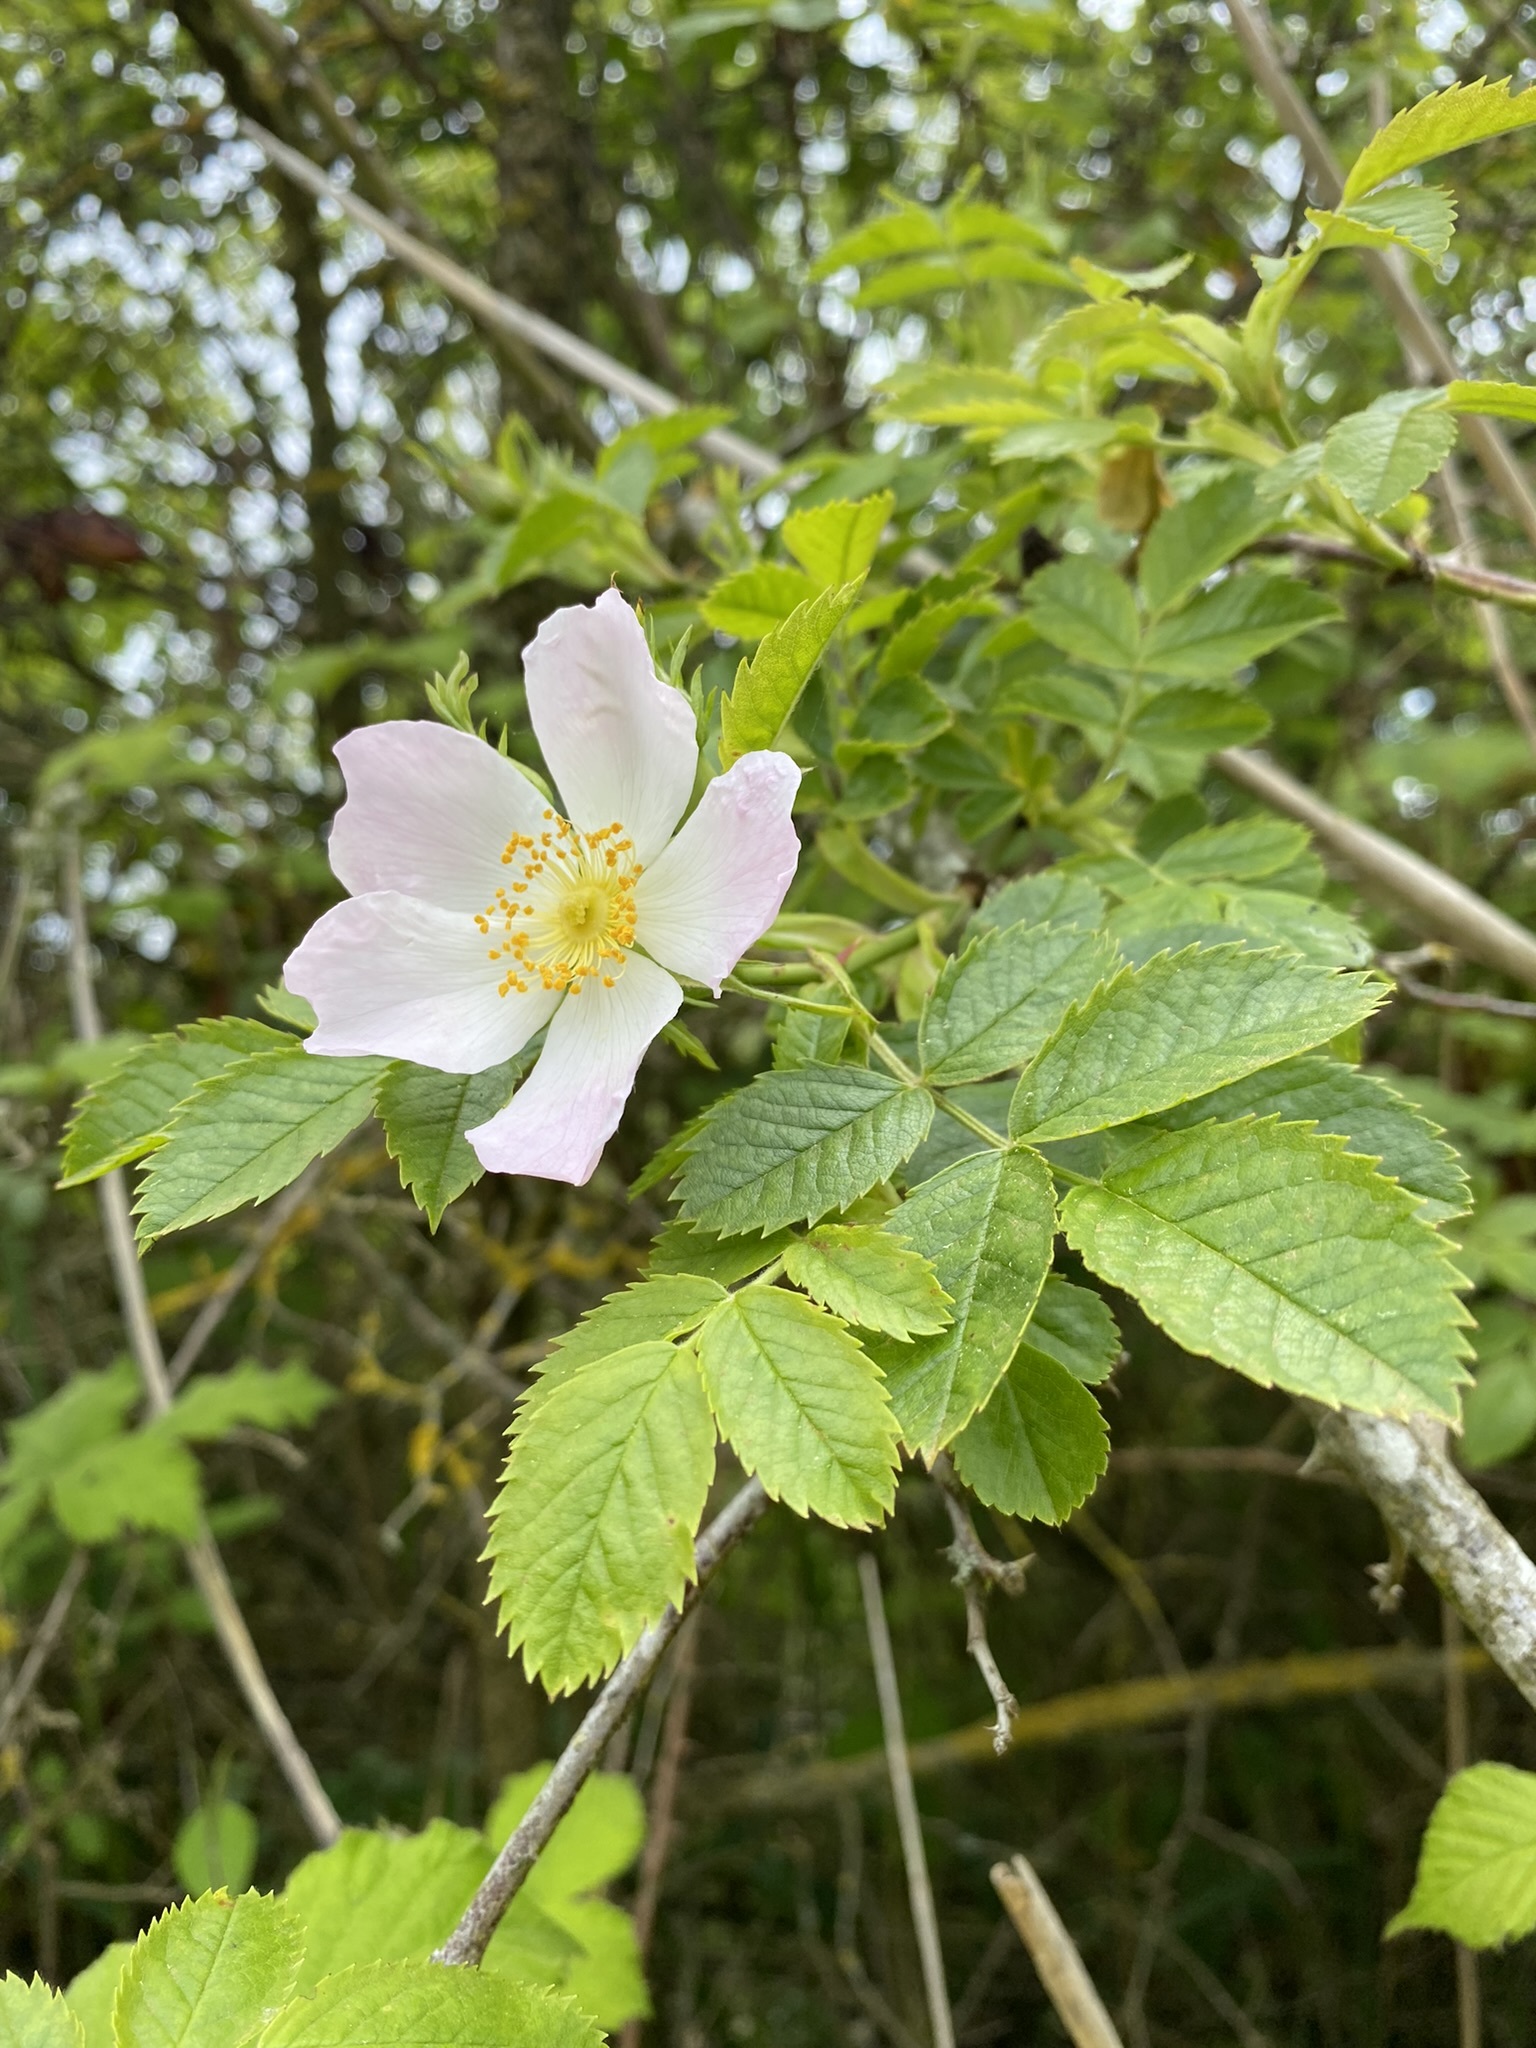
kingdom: Plantae
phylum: Tracheophyta
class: Magnoliopsida
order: Rosales
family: Rosaceae
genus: Rosa
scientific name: Rosa canina
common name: Dog rose
